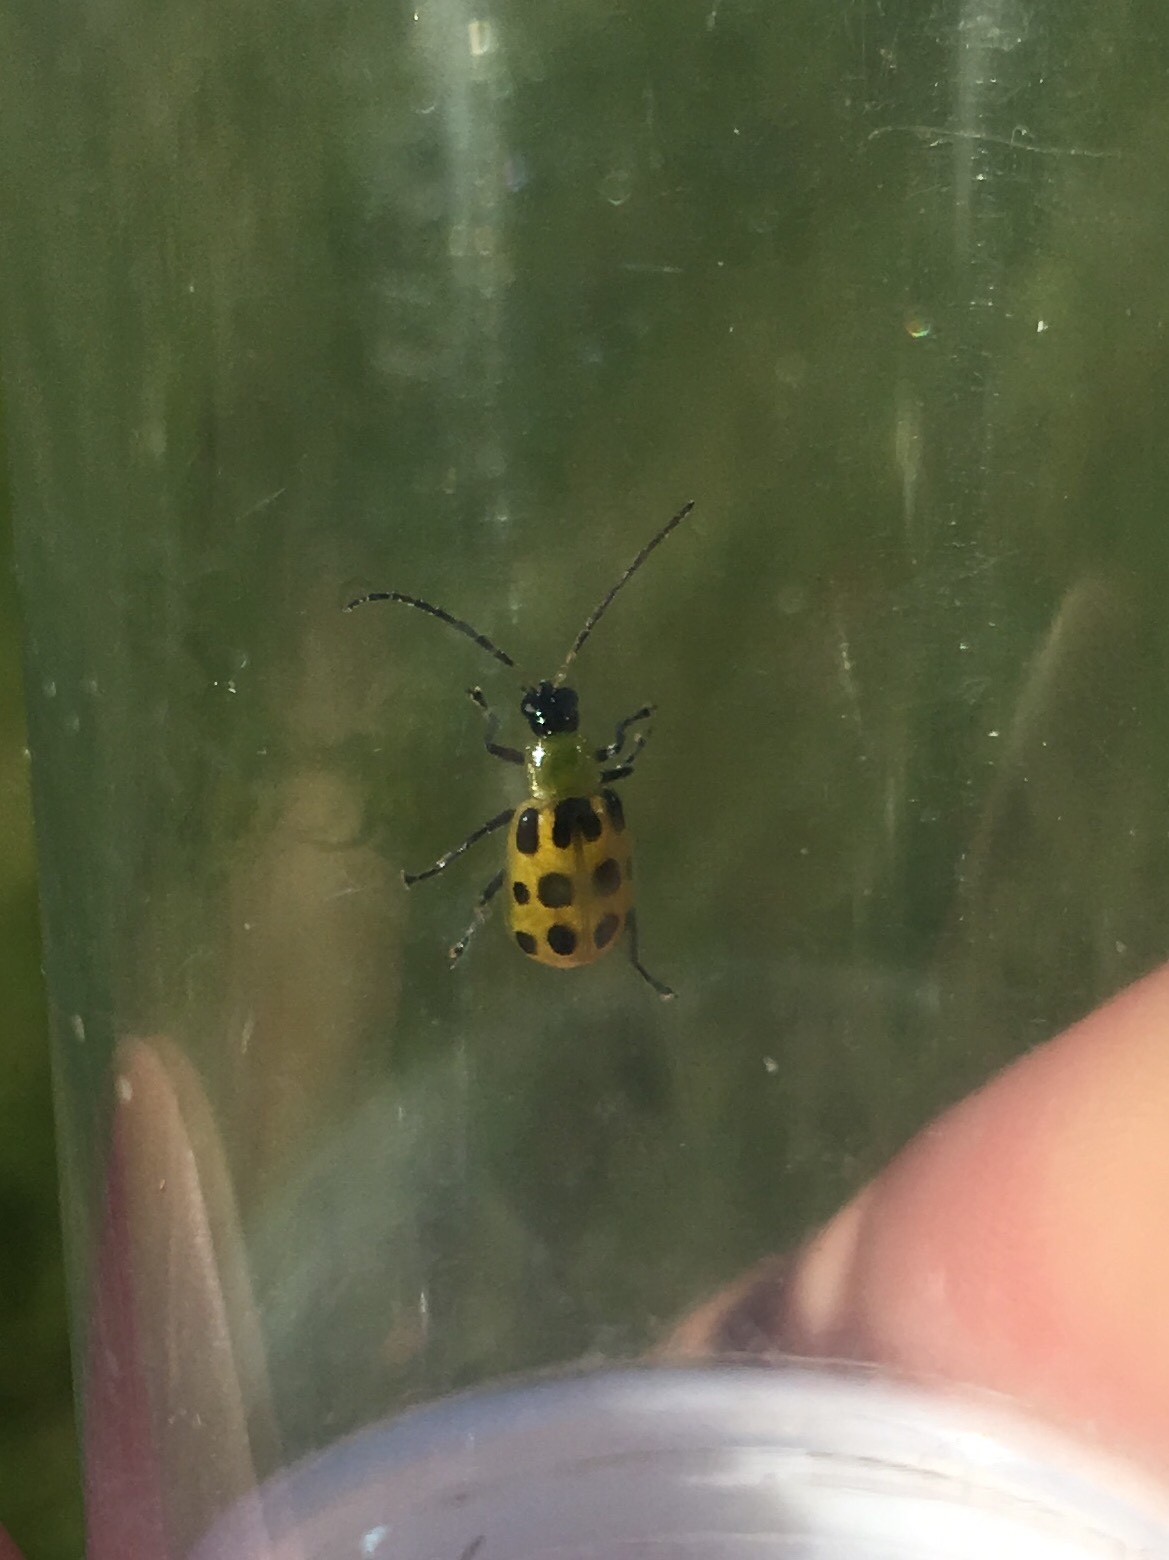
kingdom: Animalia
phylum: Arthropoda
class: Insecta
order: Coleoptera
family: Chrysomelidae
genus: Diabrotica
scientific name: Diabrotica undecimpunctata
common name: Spotted cucumber beetle
